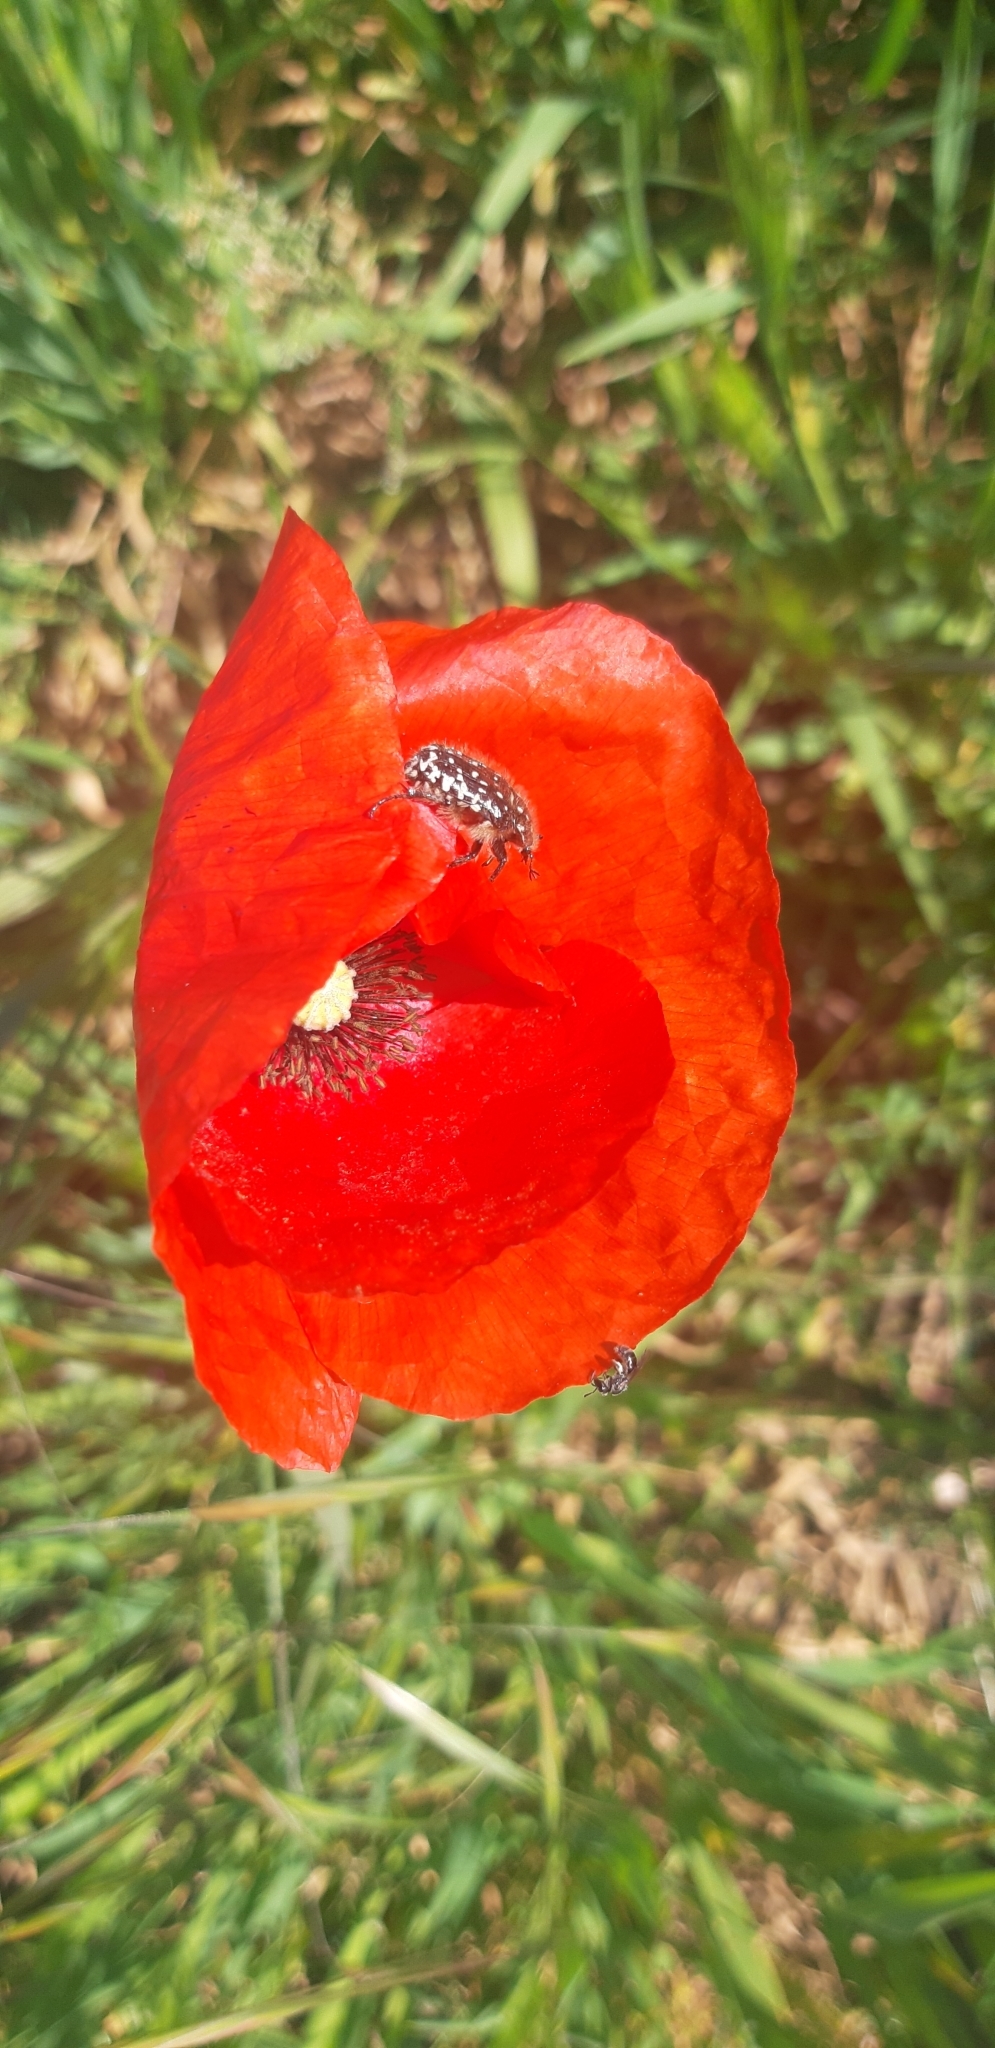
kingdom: Animalia
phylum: Arthropoda
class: Insecta
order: Coleoptera
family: Scarabaeidae
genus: Oxythyrea
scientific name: Oxythyrea funesta
